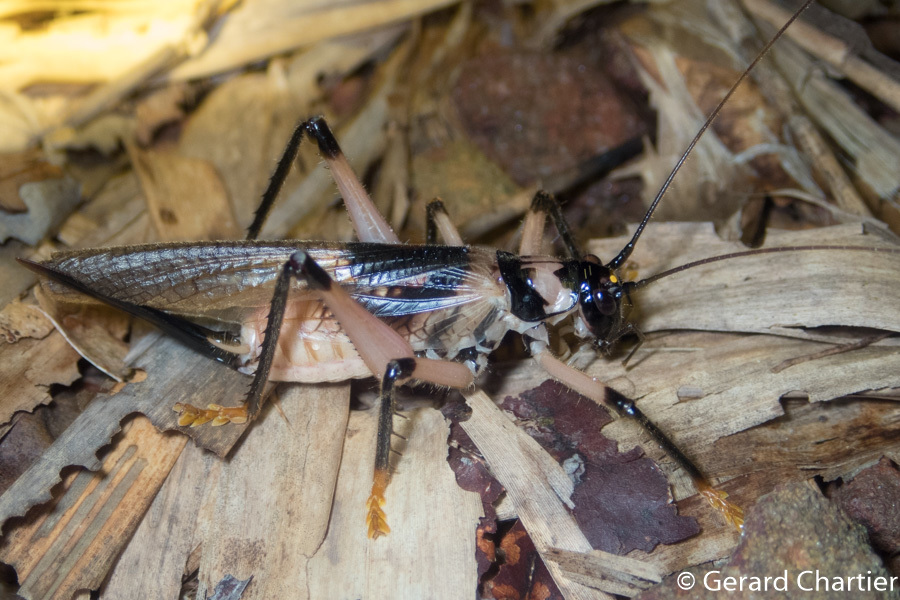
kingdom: Animalia
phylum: Arthropoda
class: Insecta
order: Orthoptera
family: Gryllacrididae
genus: Capnogryllacris
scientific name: Capnogryllacris khmerica
